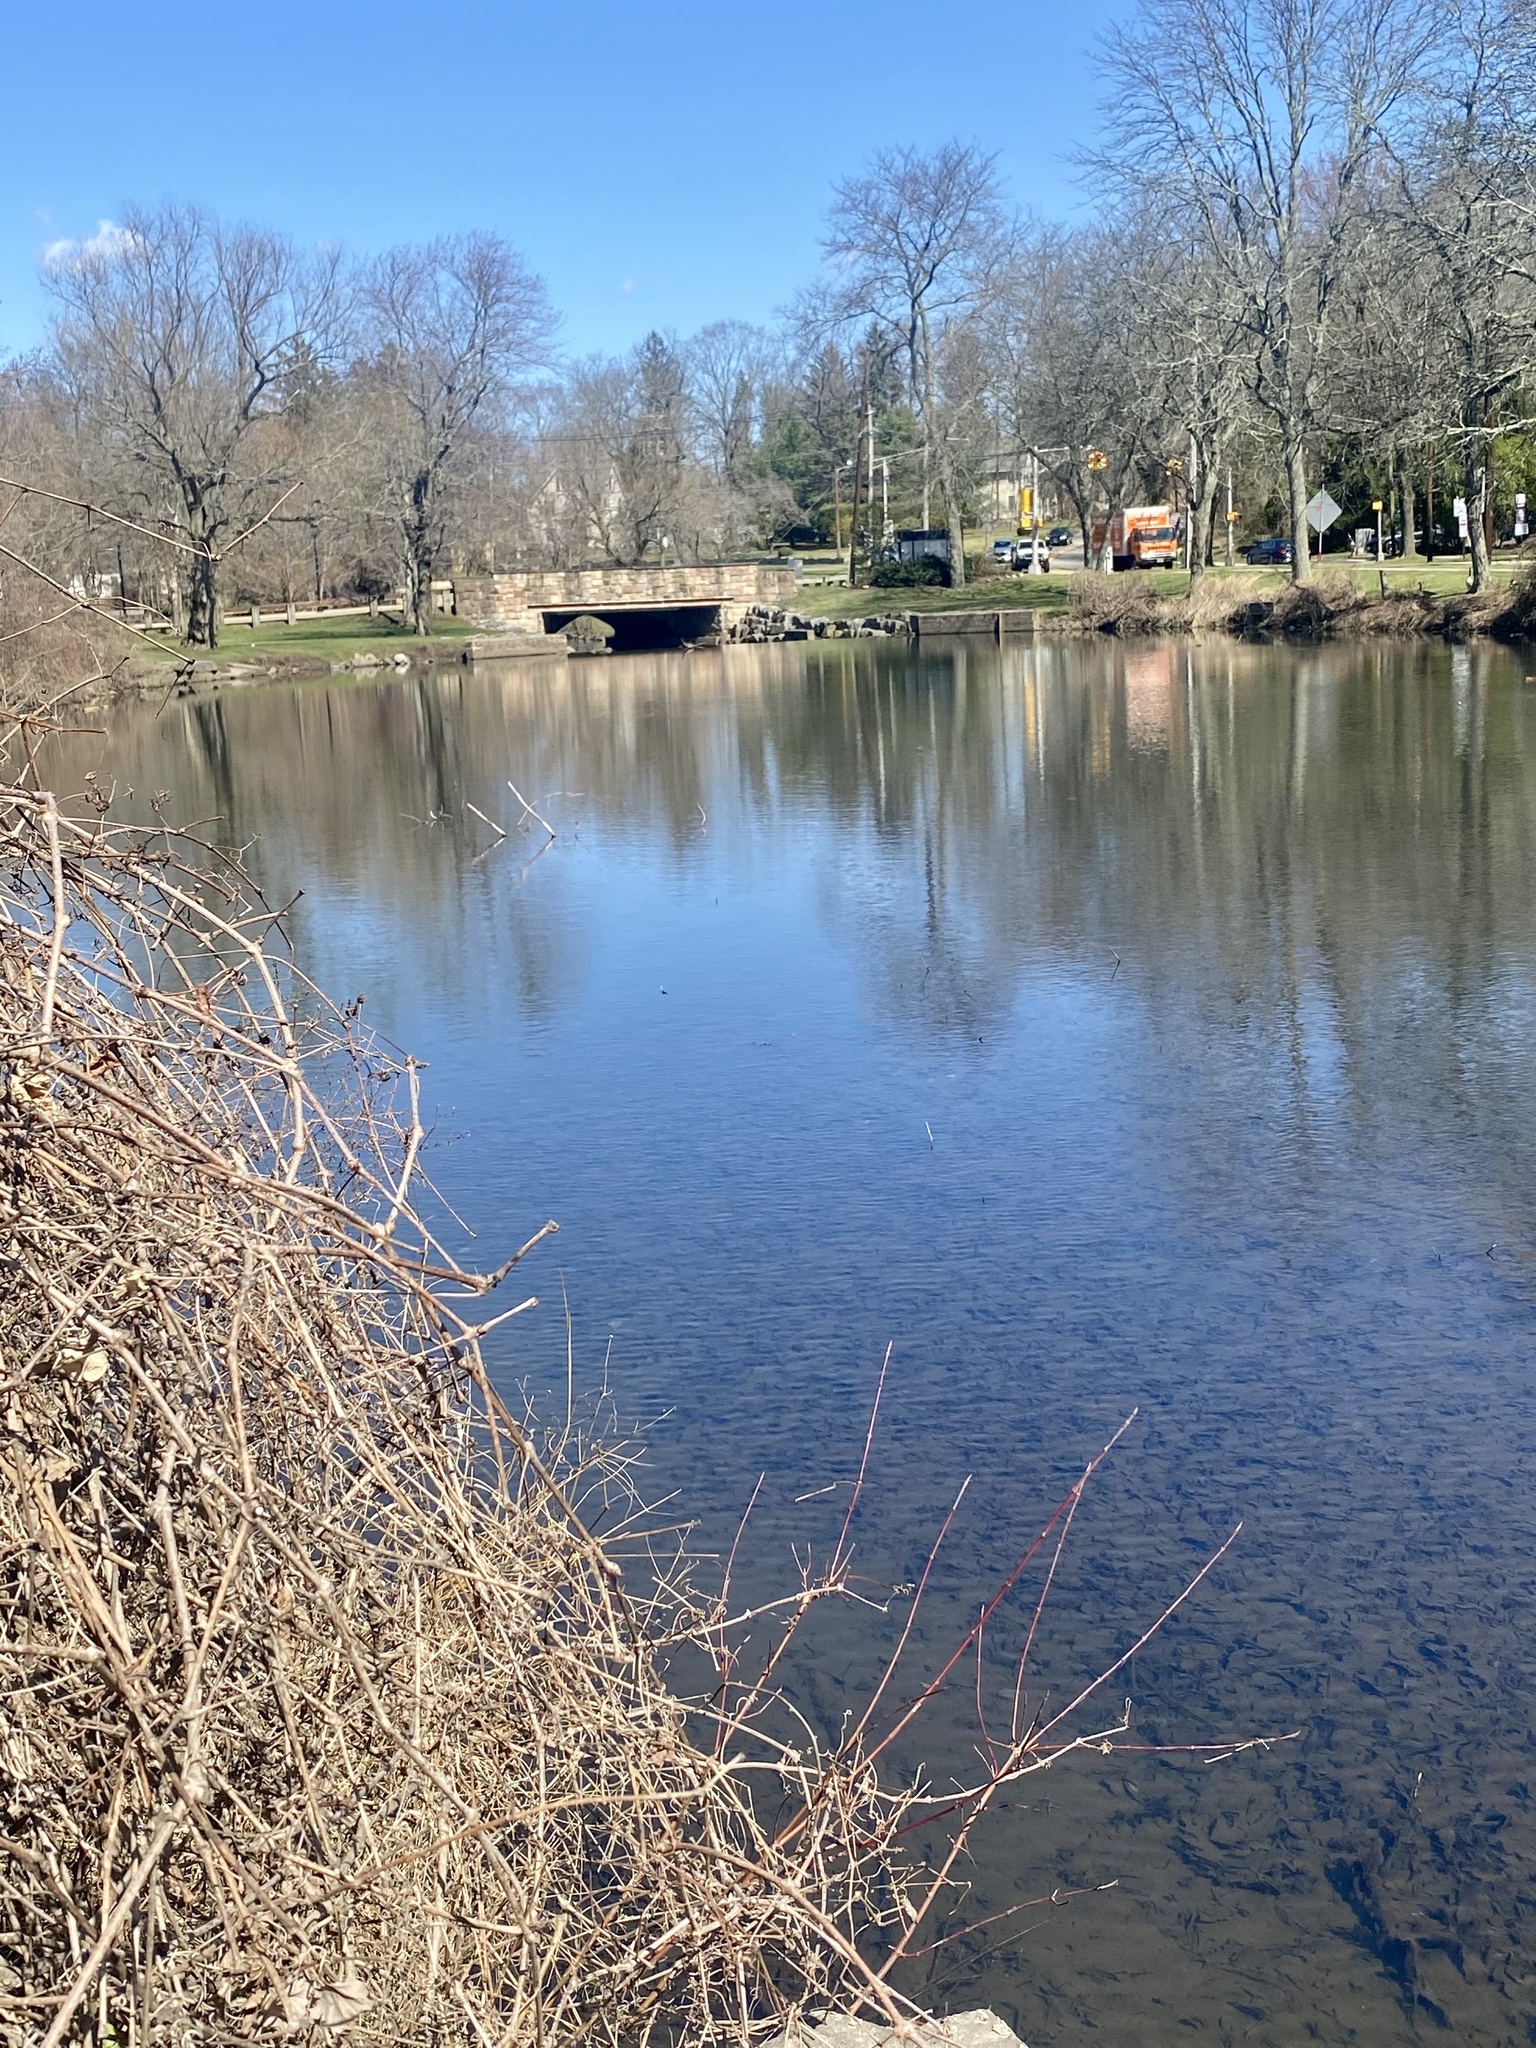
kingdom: Animalia
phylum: Chordata
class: Aves
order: Anseriformes
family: Anatidae
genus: Branta
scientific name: Branta canadensis
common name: Canada goose
